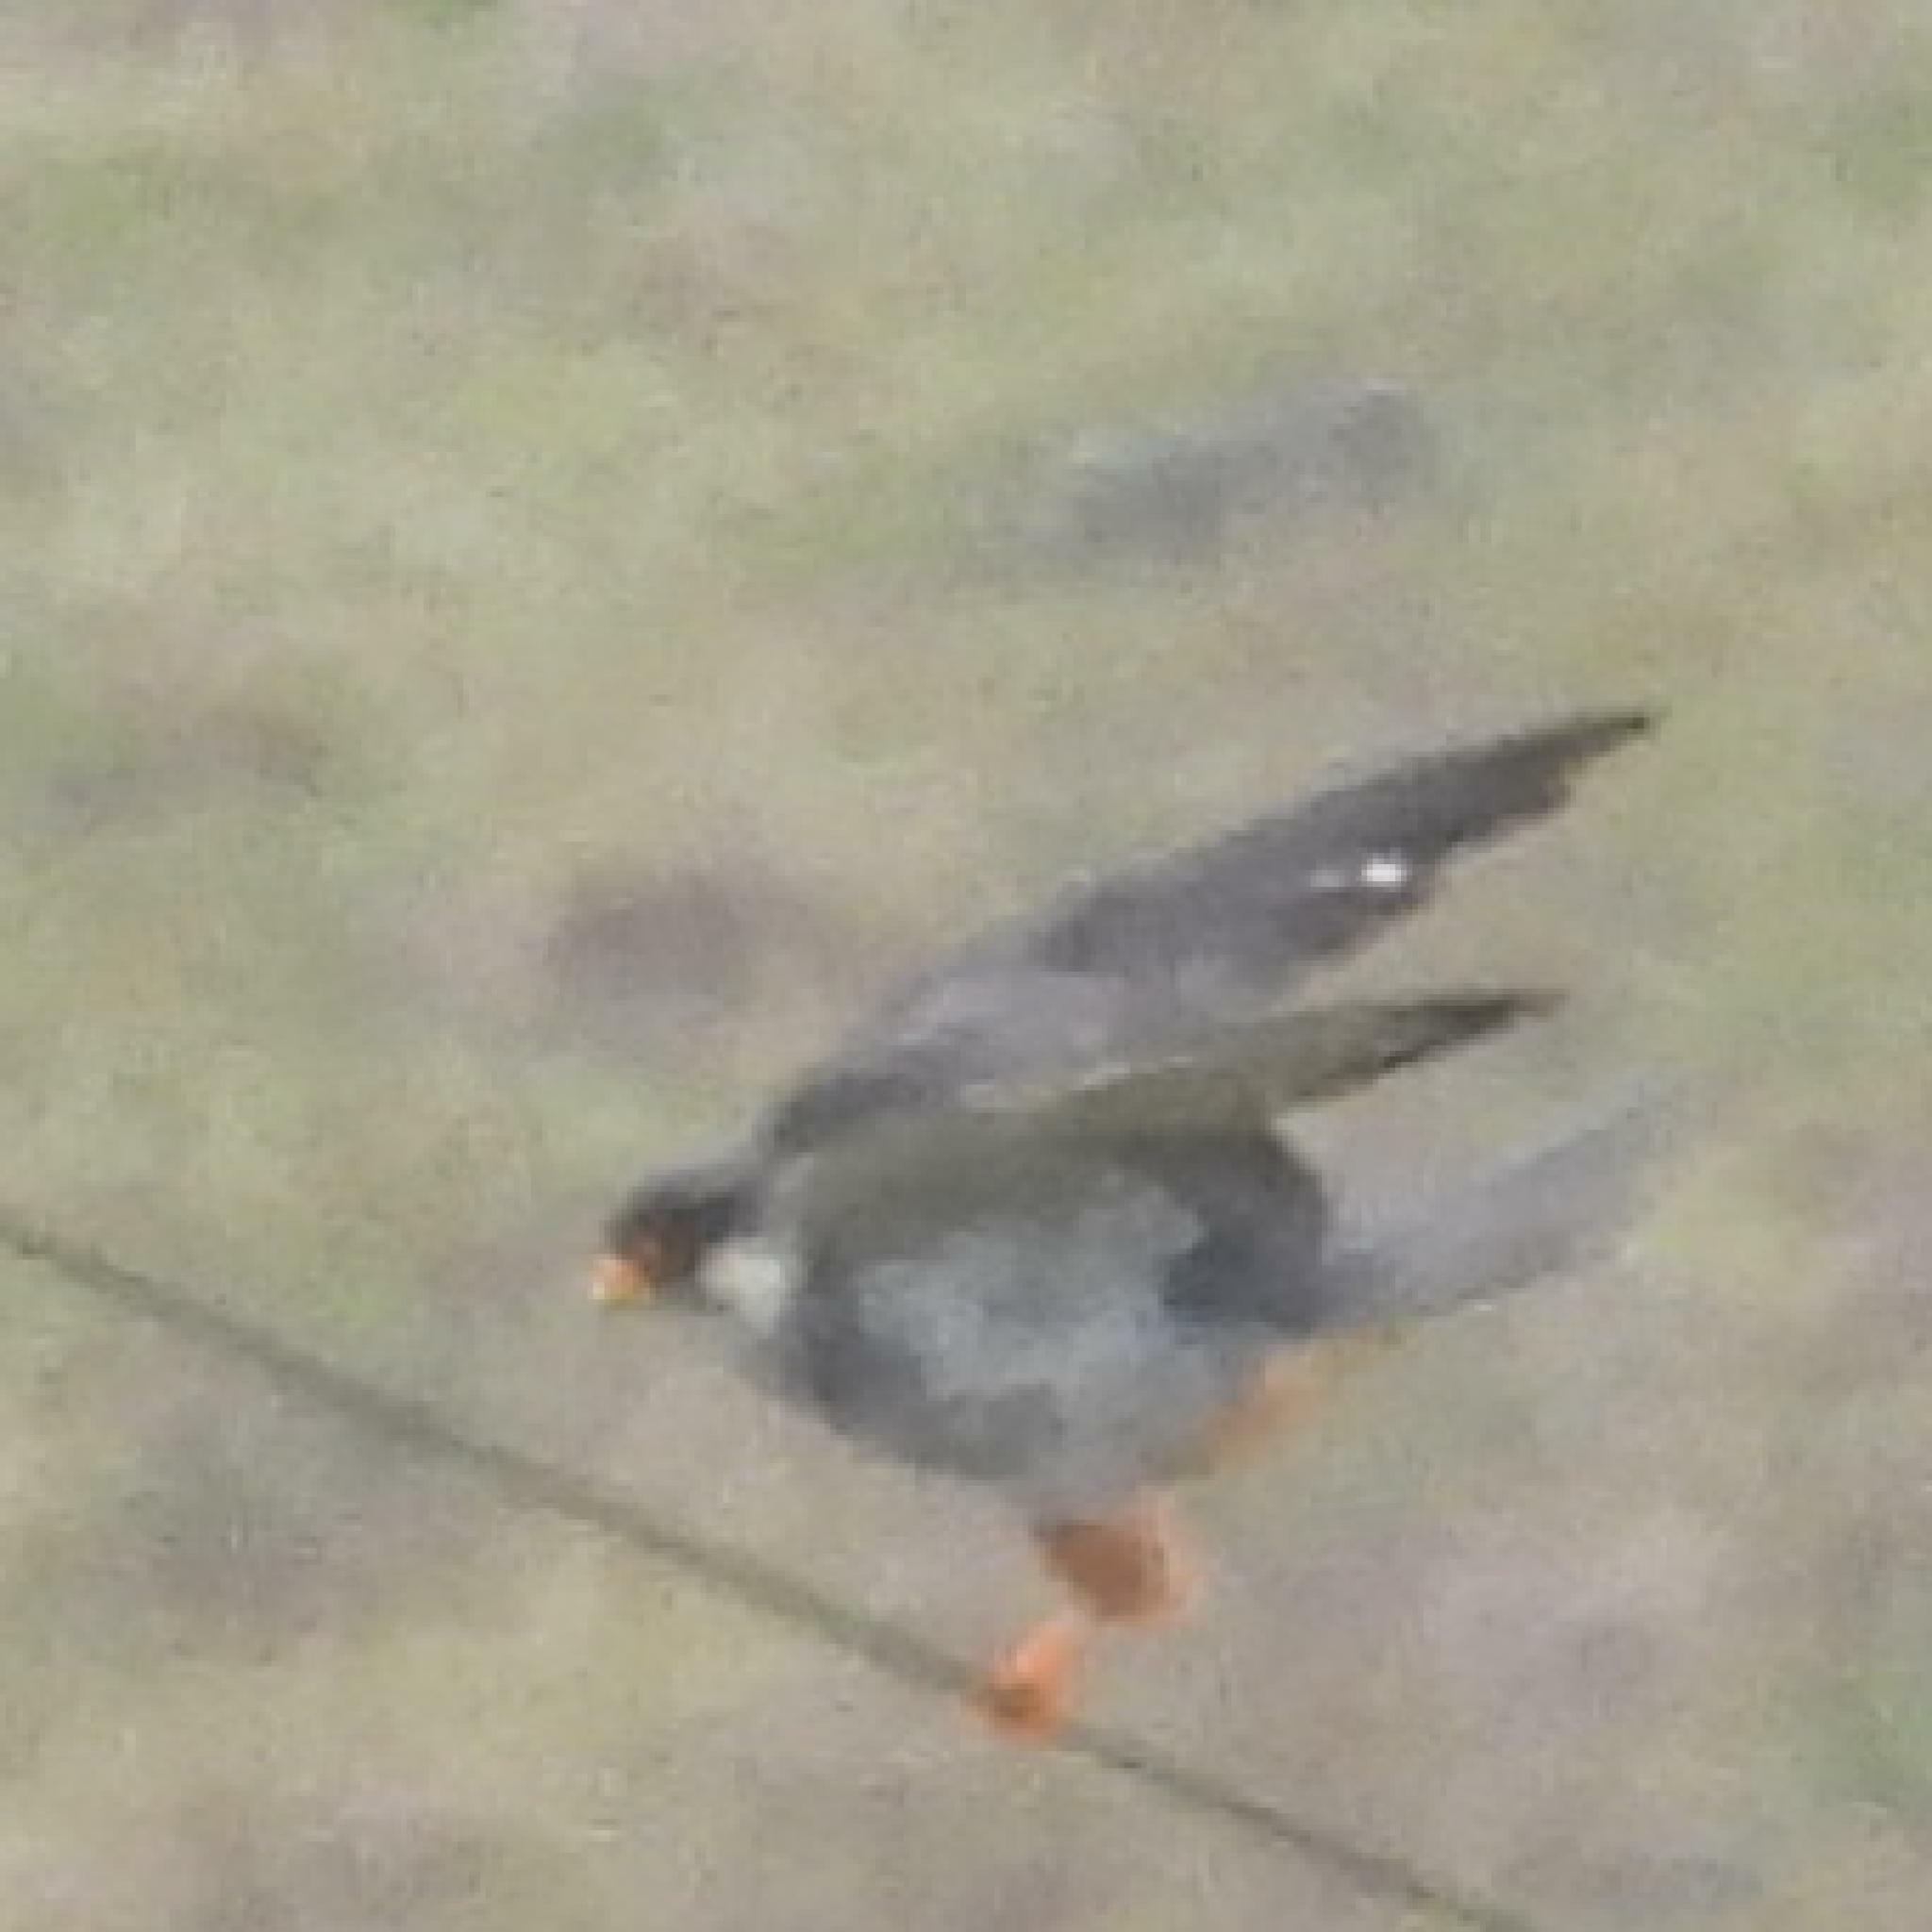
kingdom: Animalia
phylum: Chordata
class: Aves
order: Falconiformes
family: Falconidae
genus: Falco
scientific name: Falco amurensis
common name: Amur falcon
